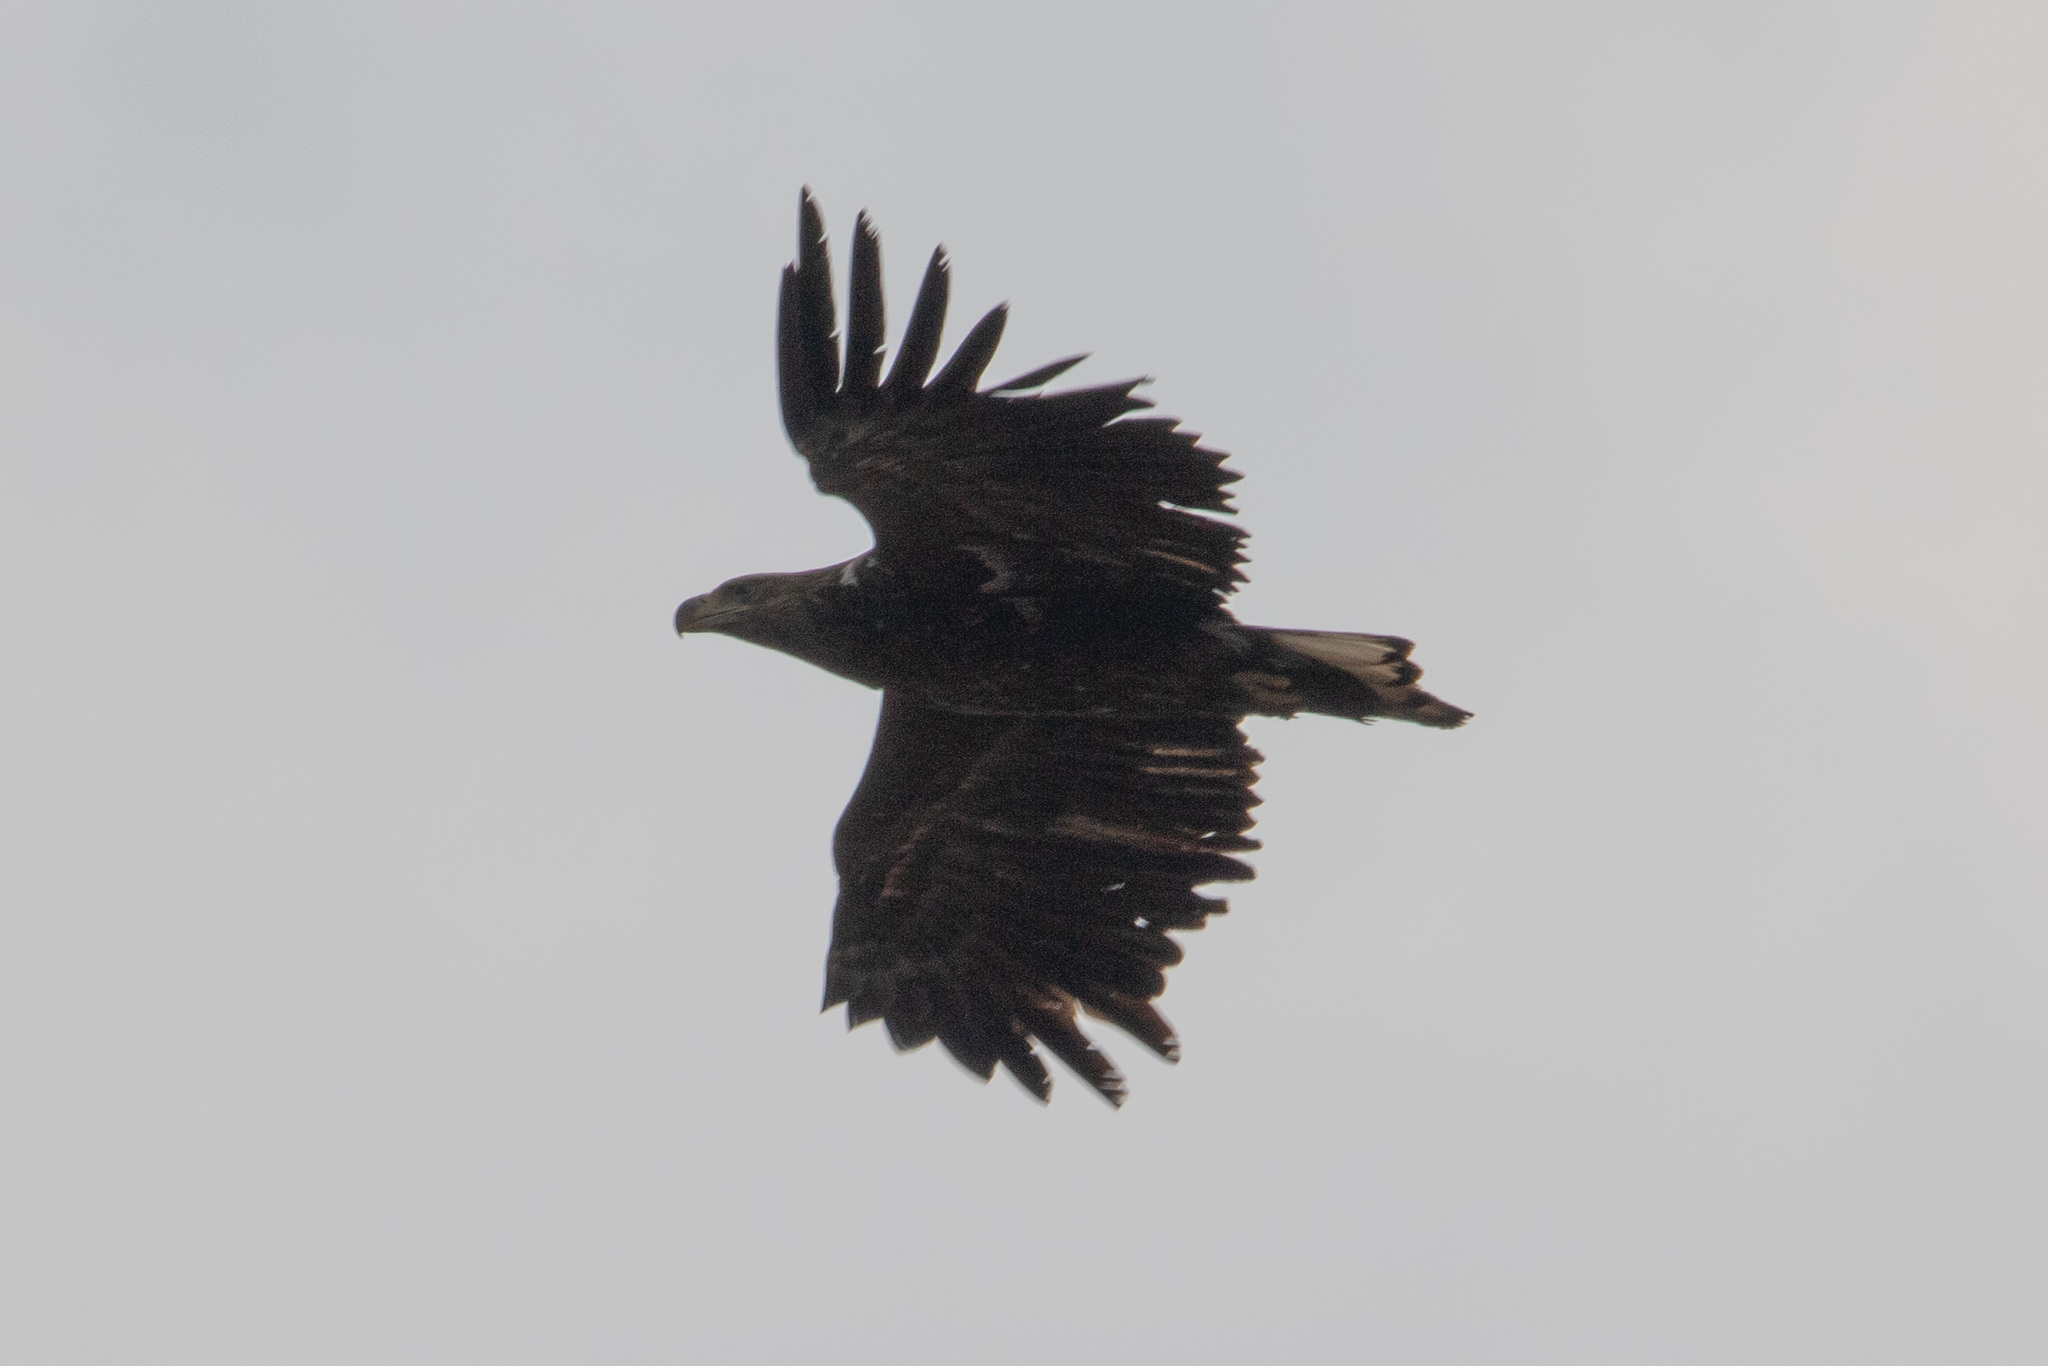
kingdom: Animalia
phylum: Chordata
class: Aves
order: Accipitriformes
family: Accipitridae
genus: Haliaeetus
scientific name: Haliaeetus albicilla
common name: White-tailed eagle
